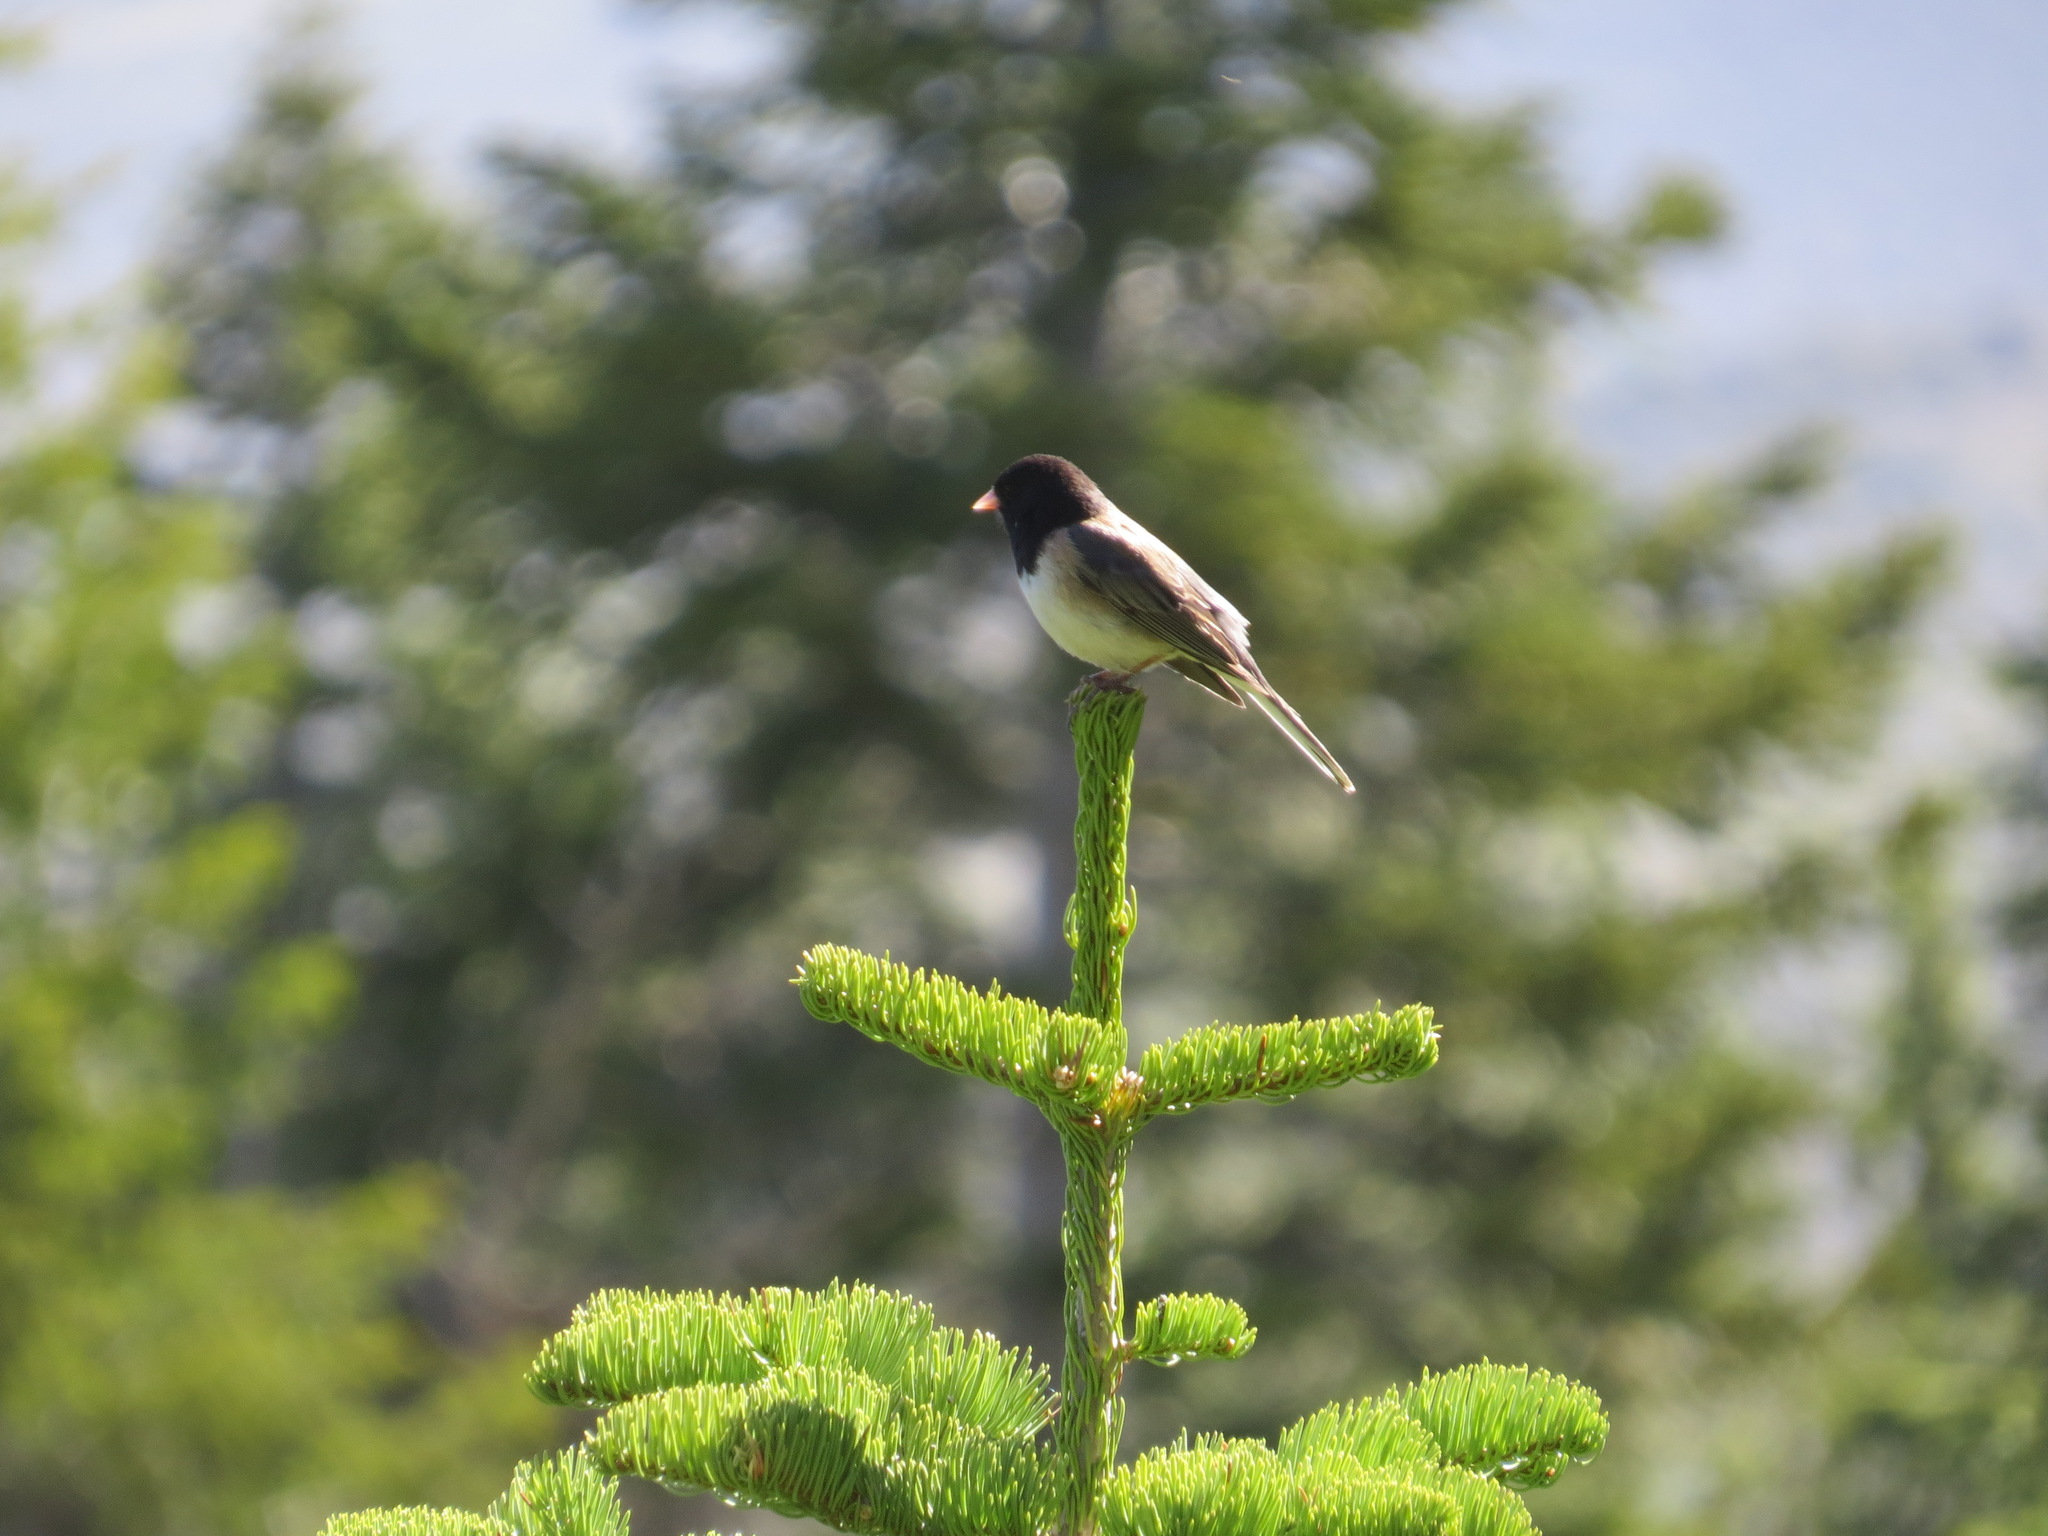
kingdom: Animalia
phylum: Chordata
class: Aves
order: Passeriformes
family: Passerellidae
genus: Junco
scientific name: Junco hyemalis
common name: Dark-eyed junco
